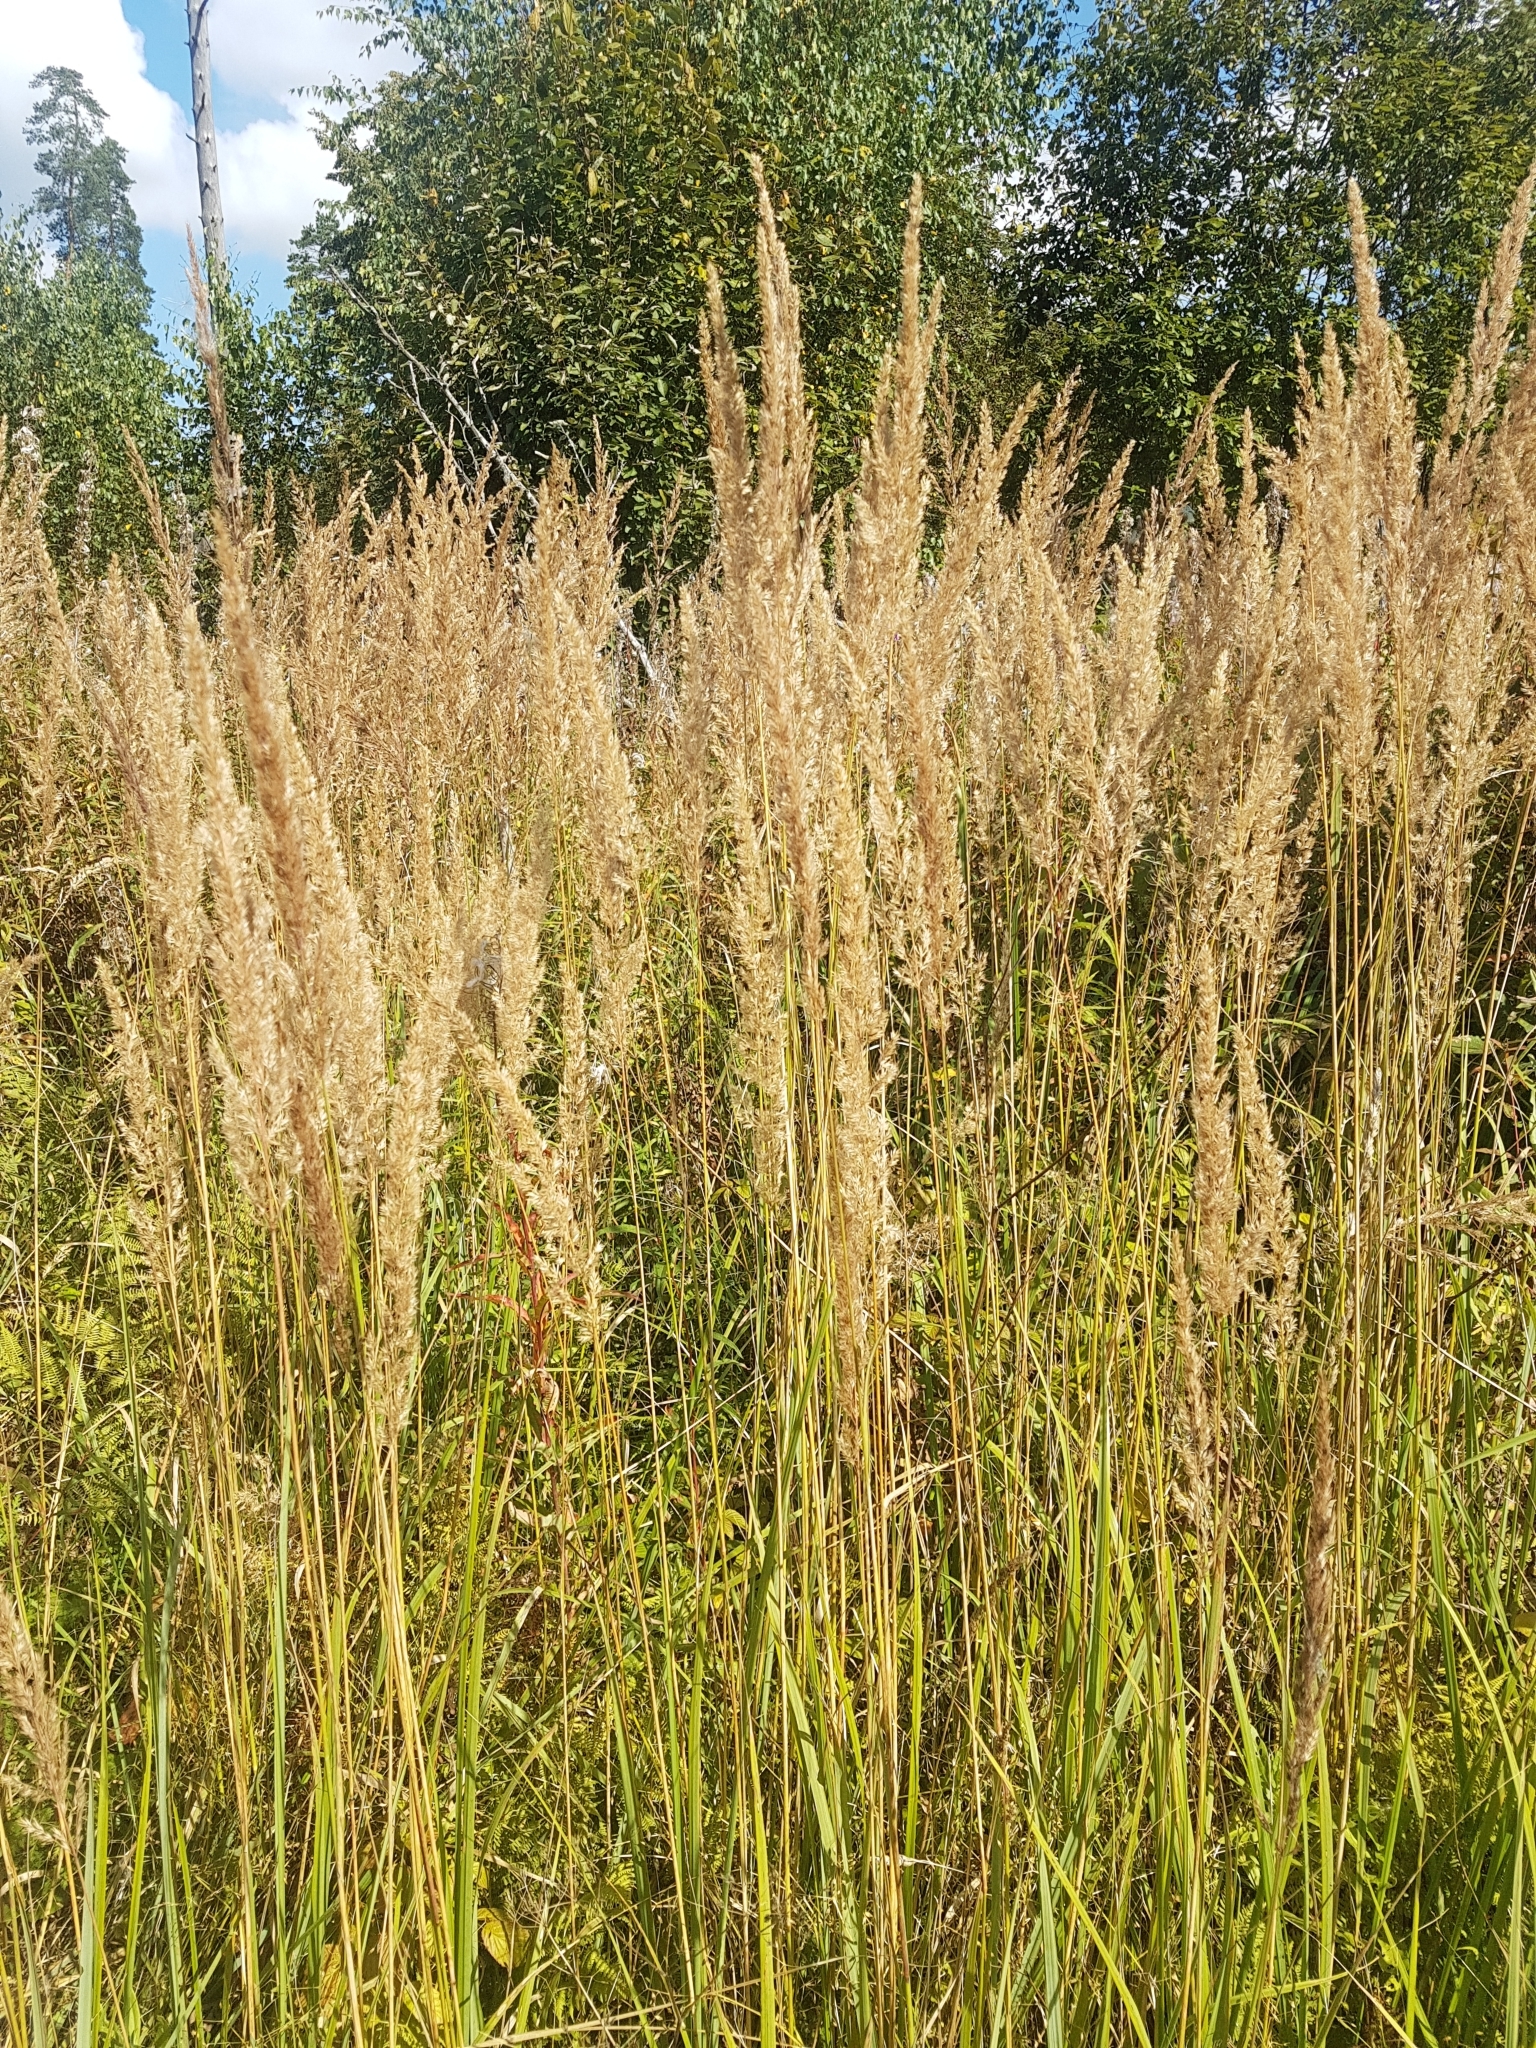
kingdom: Plantae
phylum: Tracheophyta
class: Liliopsida
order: Poales
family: Poaceae
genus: Calamagrostis
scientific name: Calamagrostis epigejos
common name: Wood small-reed
